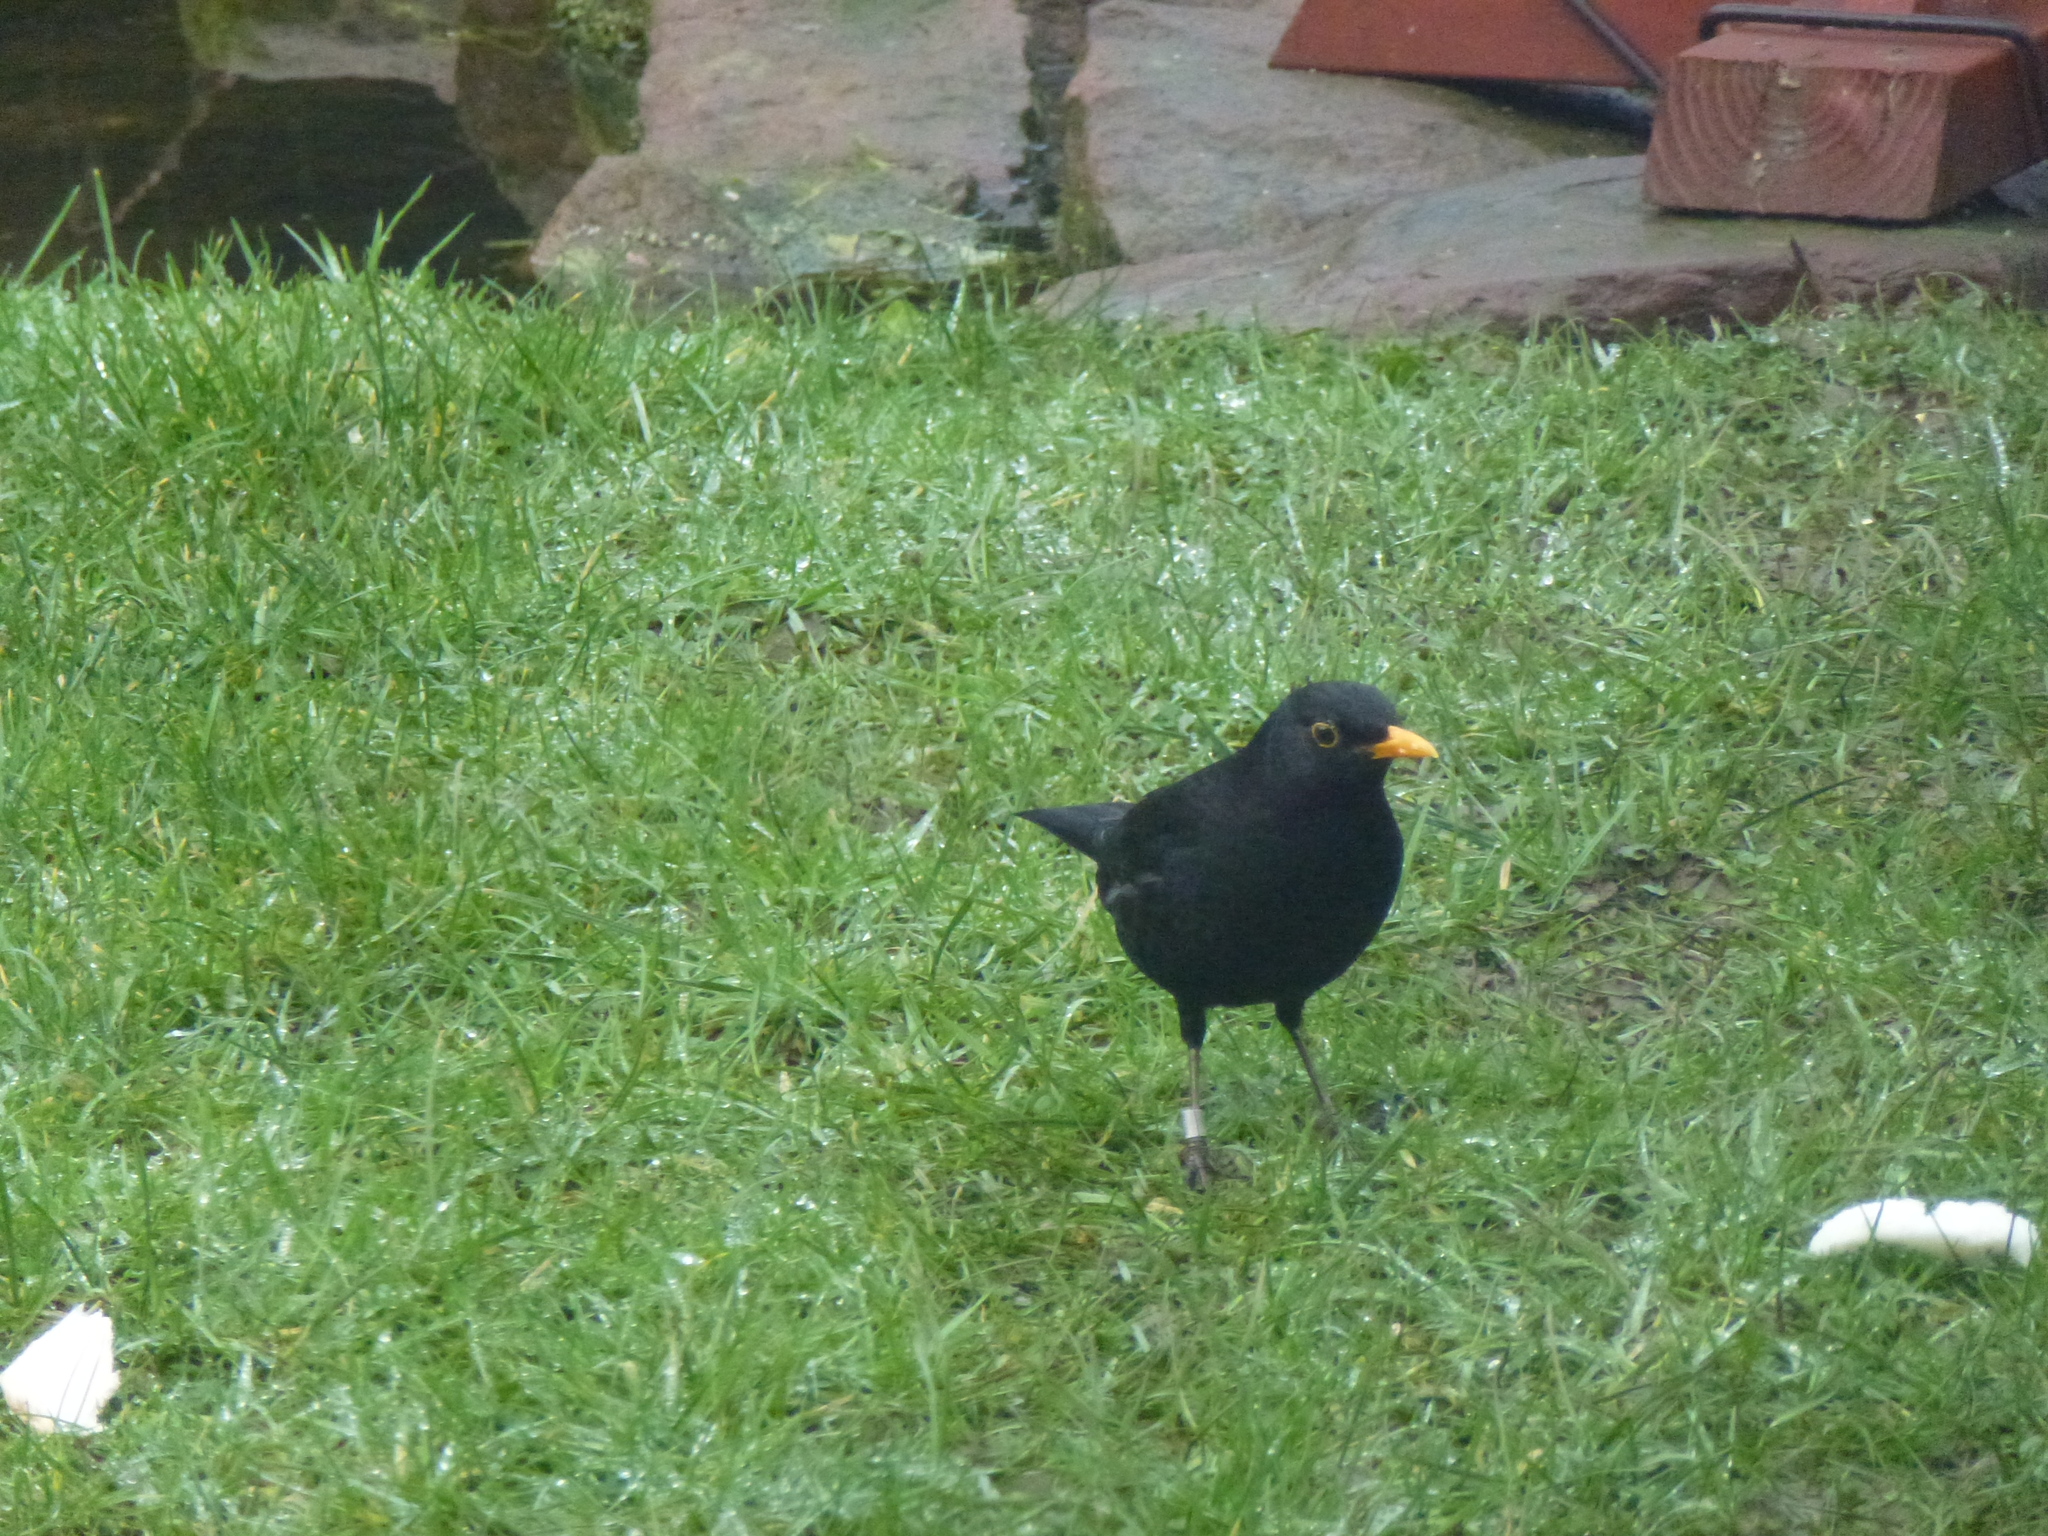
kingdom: Animalia
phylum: Chordata
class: Aves
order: Passeriformes
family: Turdidae
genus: Turdus
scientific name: Turdus merula
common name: Common blackbird
